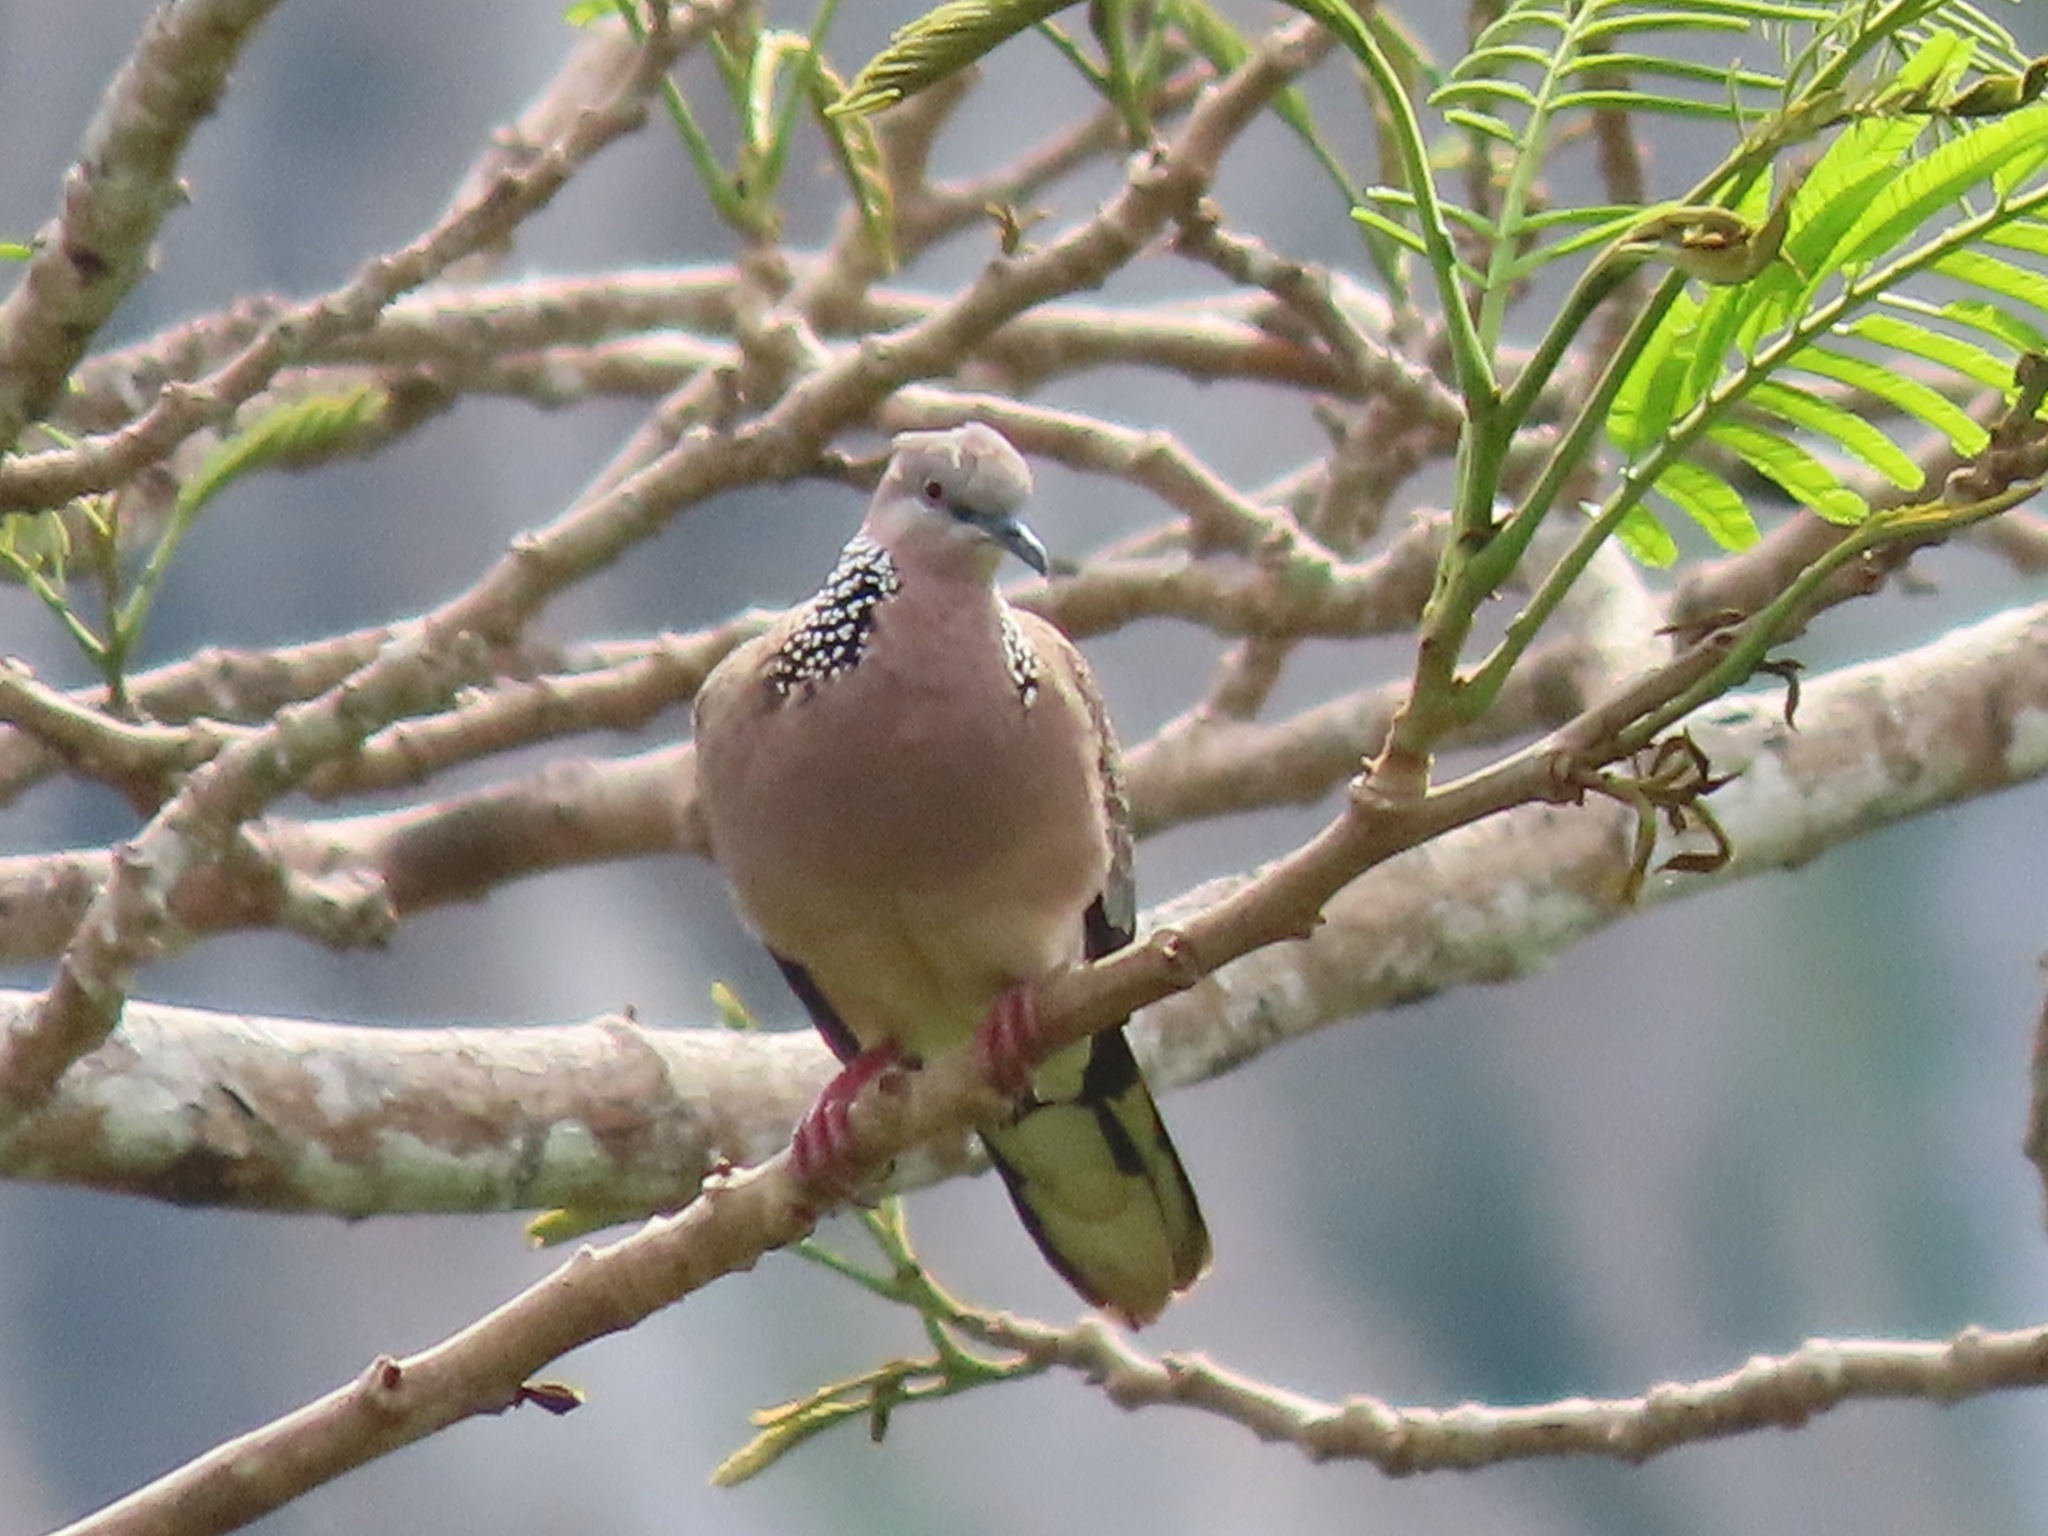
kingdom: Animalia
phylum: Chordata
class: Aves
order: Columbiformes
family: Columbidae
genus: Spilopelia
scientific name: Spilopelia chinensis
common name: Spotted dove
